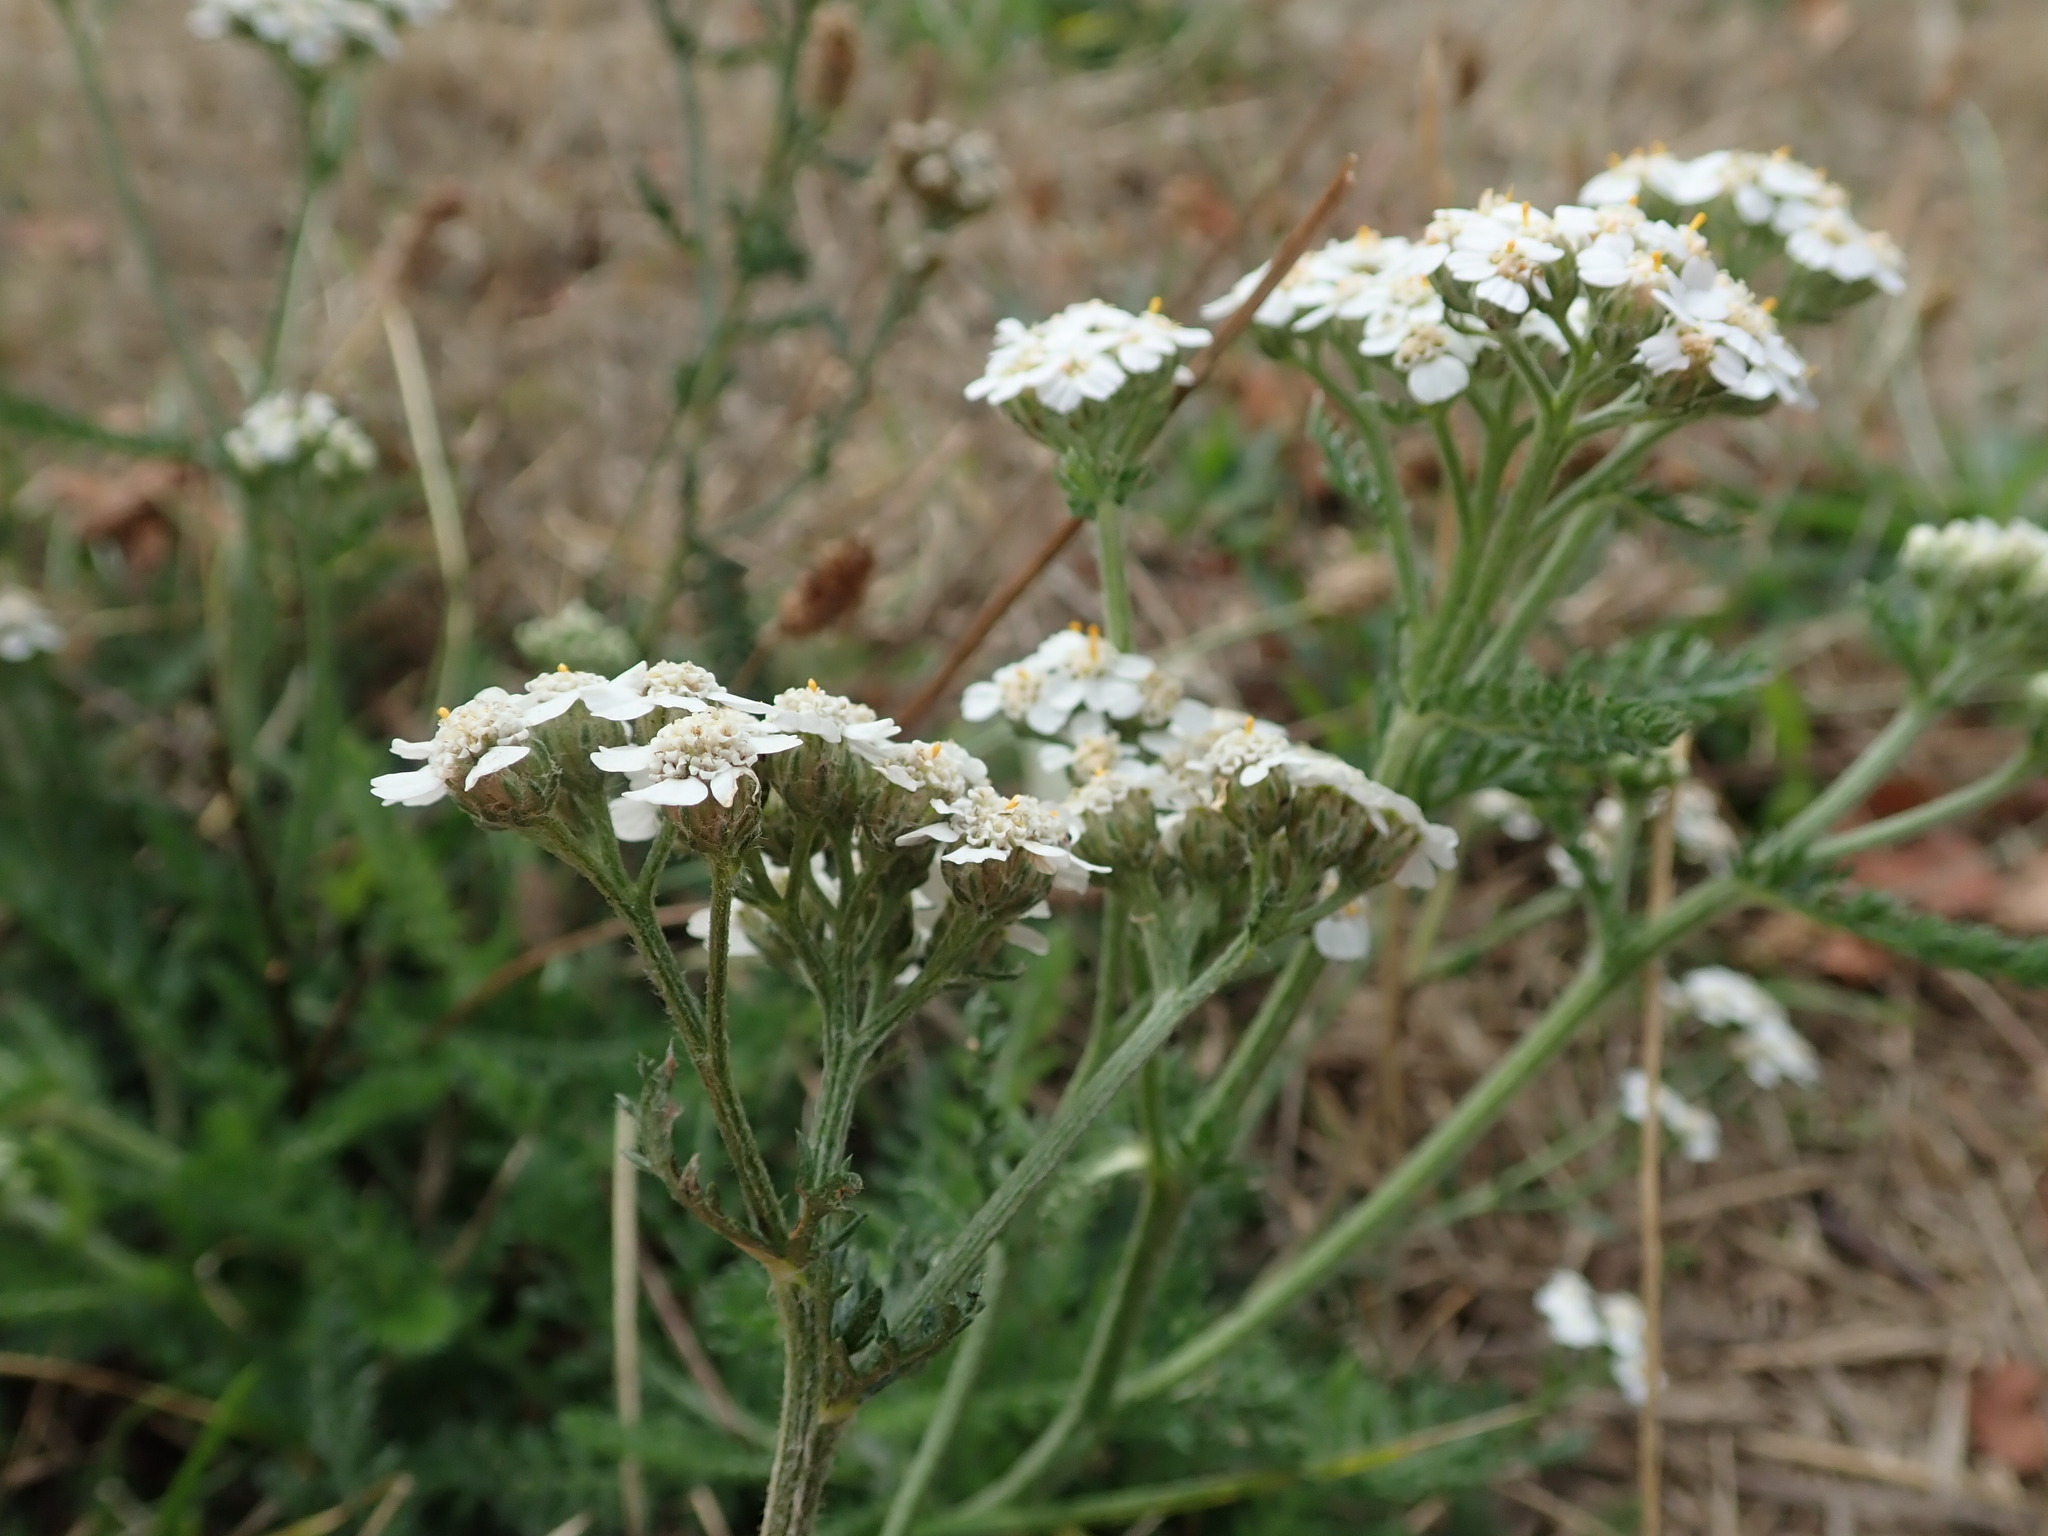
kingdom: Plantae
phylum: Tracheophyta
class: Magnoliopsida
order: Asterales
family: Asteraceae
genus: Achillea
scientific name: Achillea millefolium
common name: Yarrow
